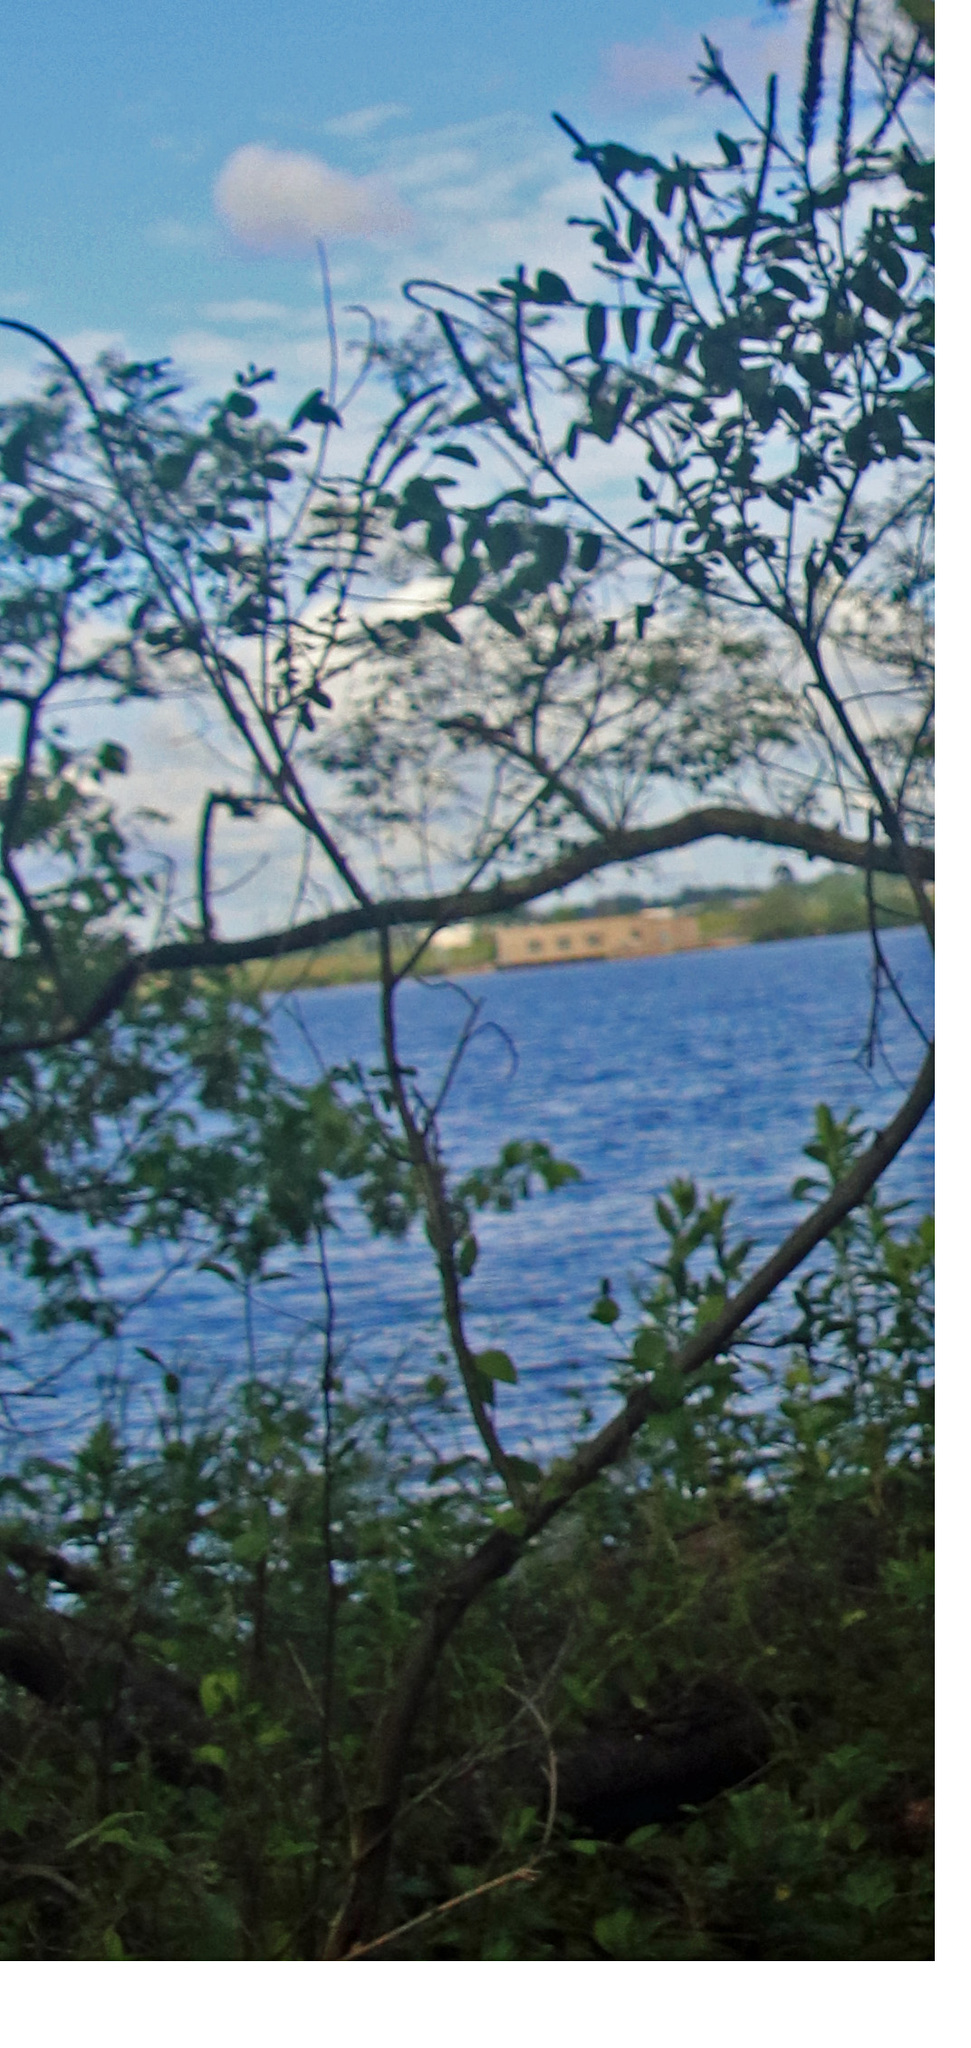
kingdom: Plantae
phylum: Tracheophyta
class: Magnoliopsida
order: Fabales
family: Fabaceae
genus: Amorpha
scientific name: Amorpha fruticosa
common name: False indigo
